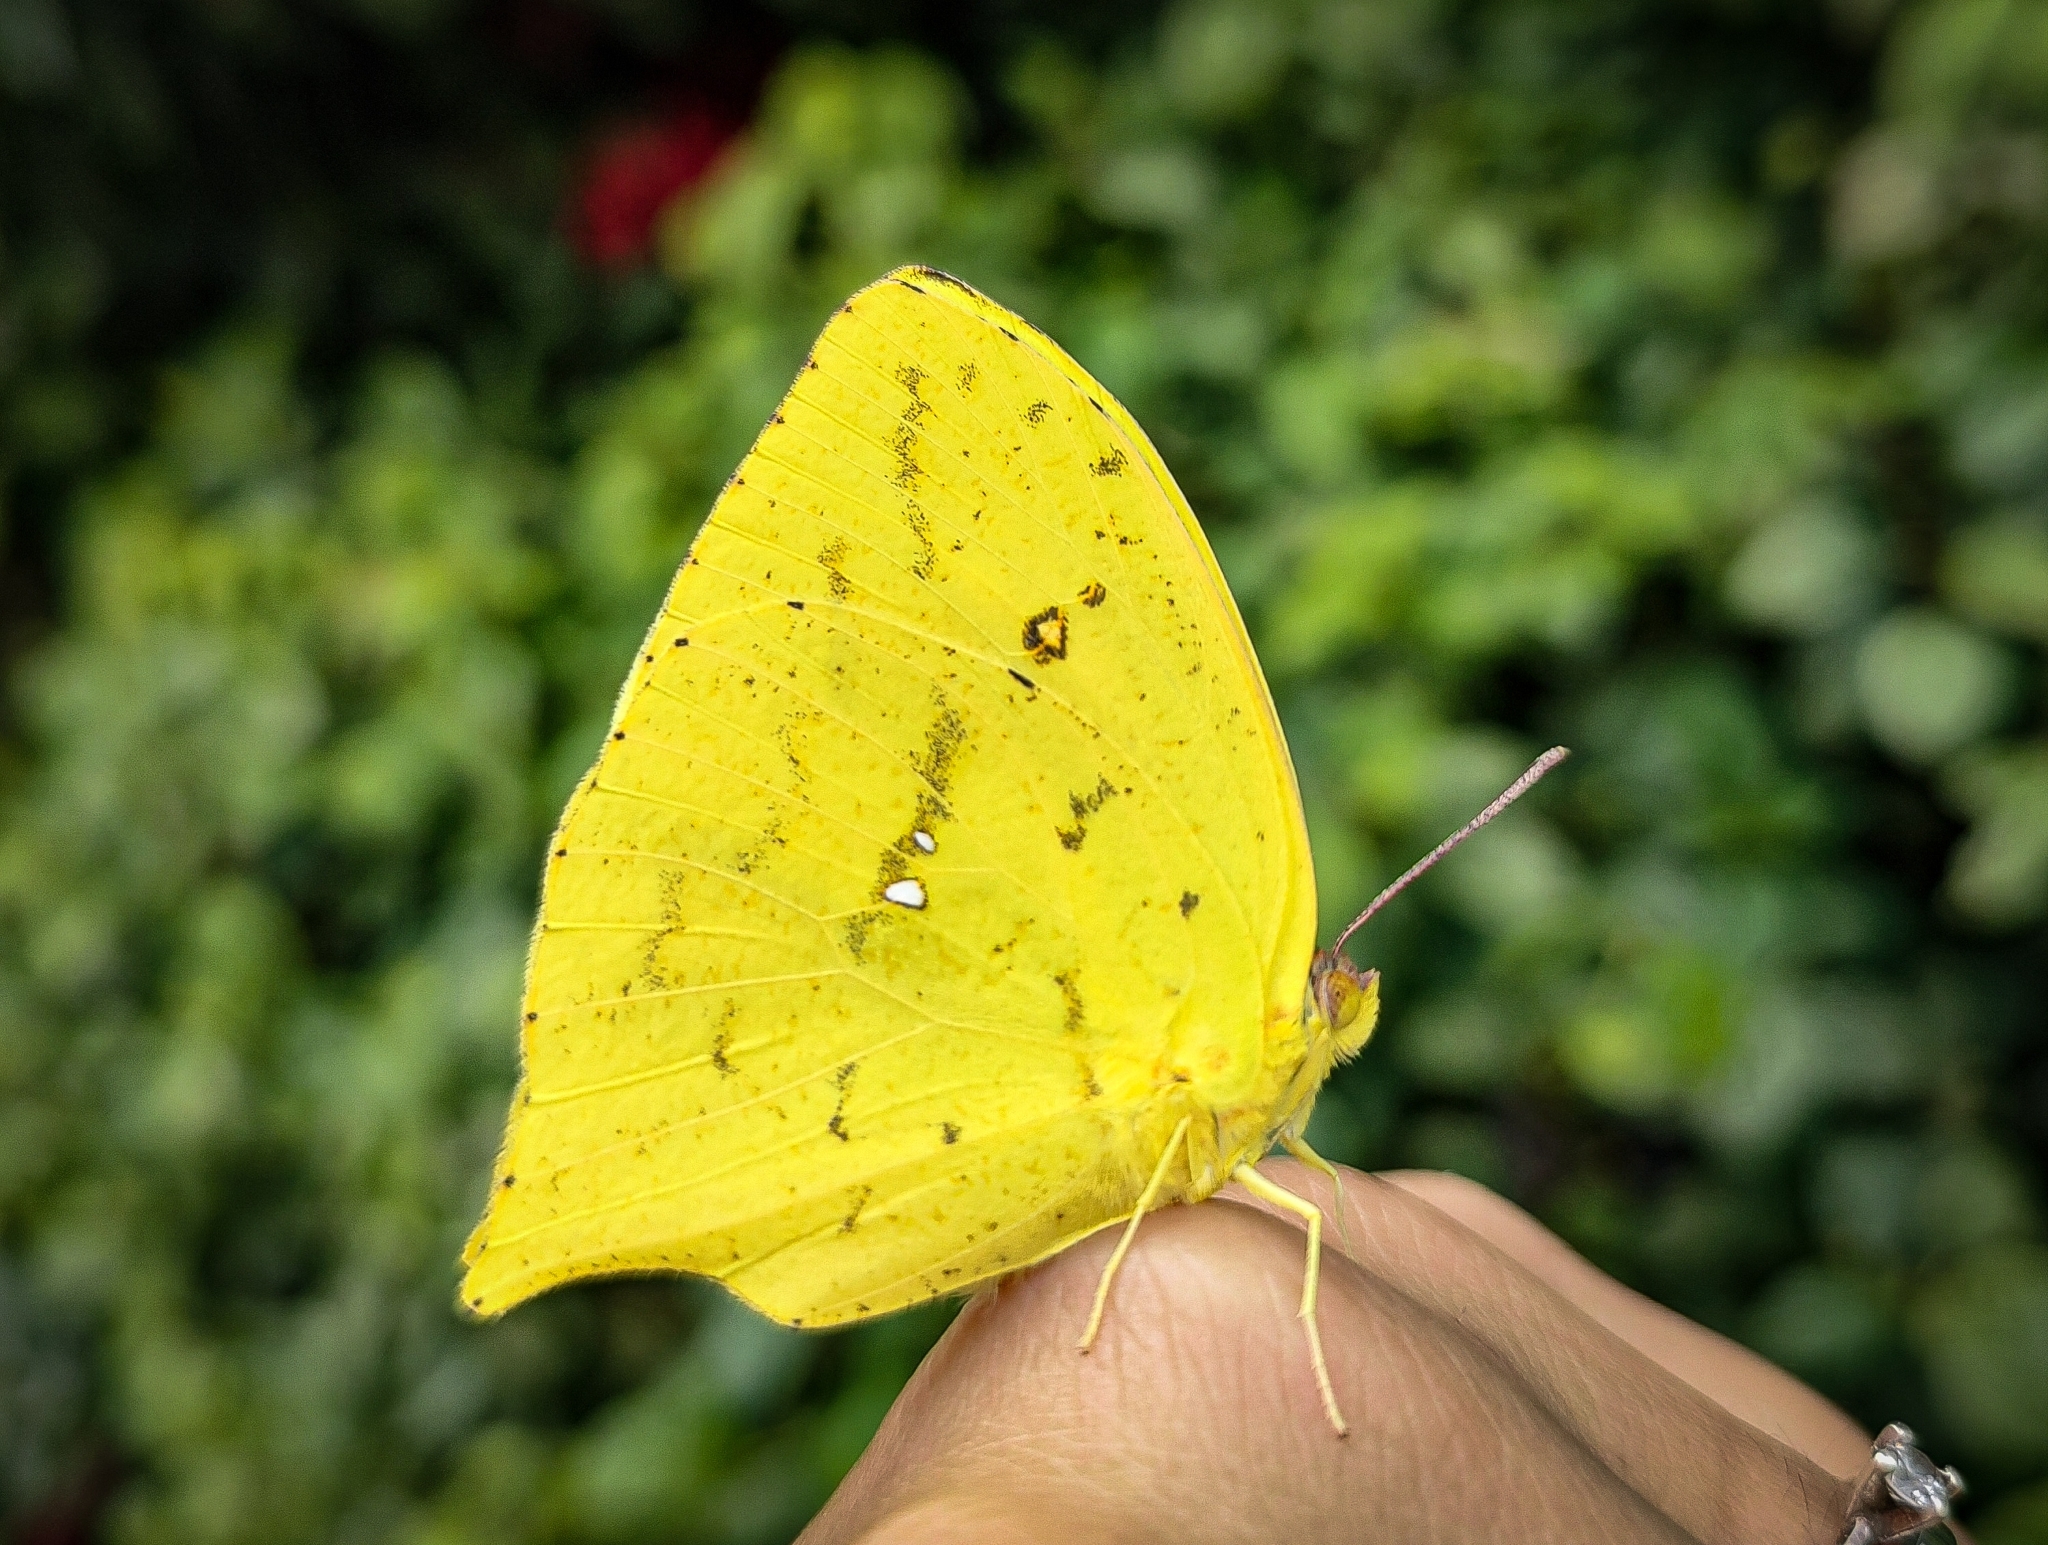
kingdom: Animalia
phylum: Arthropoda
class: Insecta
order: Lepidoptera
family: Pieridae
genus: Phoebis
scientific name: Phoebis neocypris
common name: Tailed sulphur
